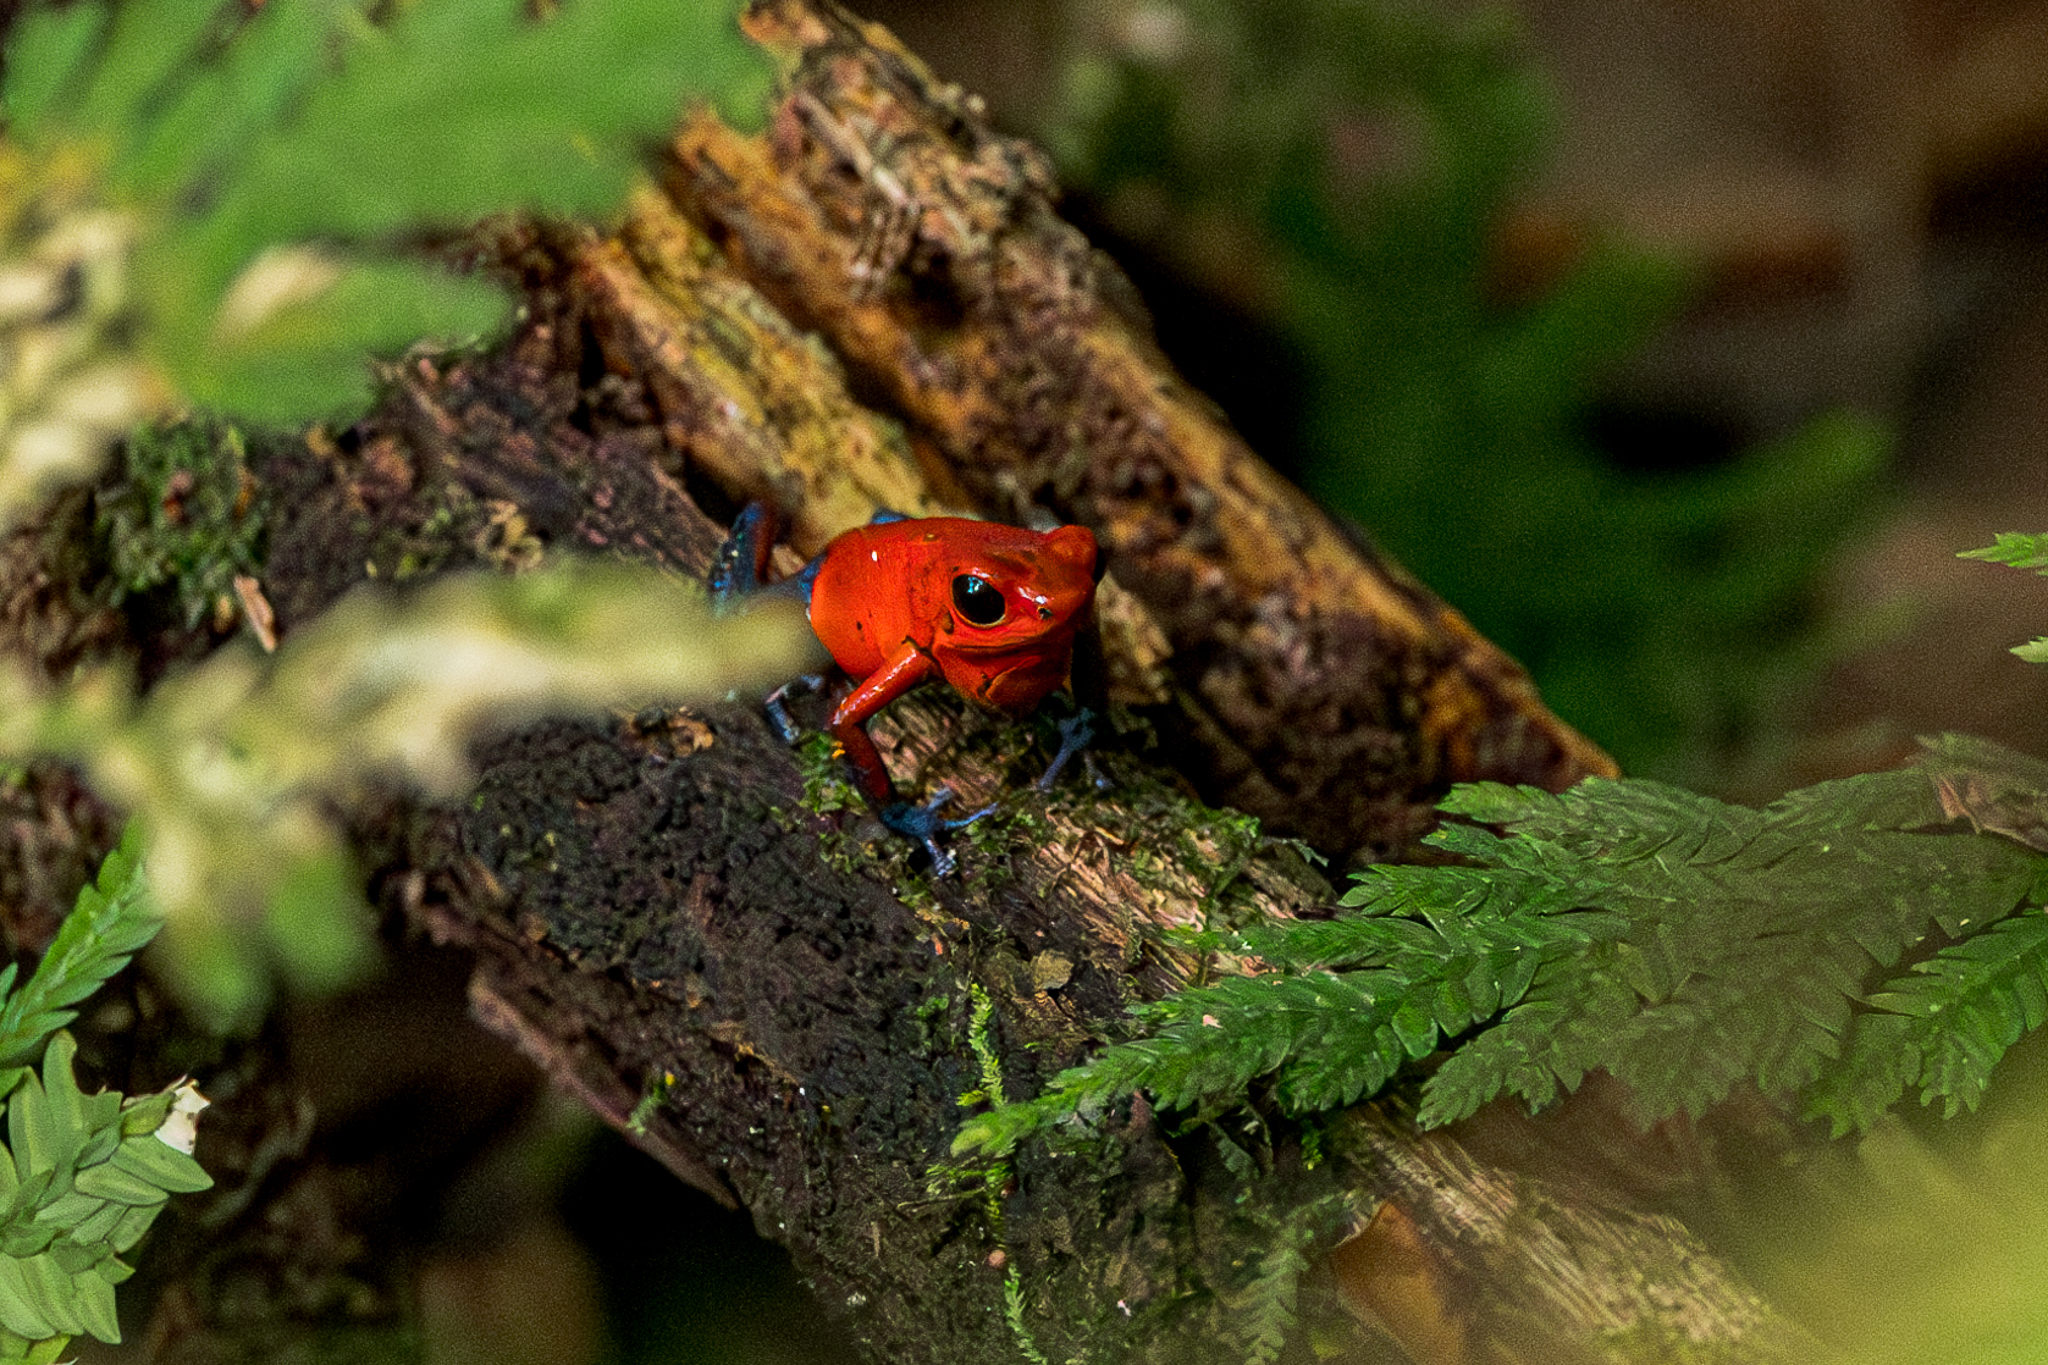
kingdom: Animalia
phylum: Chordata
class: Amphibia
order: Anura
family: Dendrobatidae
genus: Oophaga
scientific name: Oophaga pumilio
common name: Flaming poison frog
